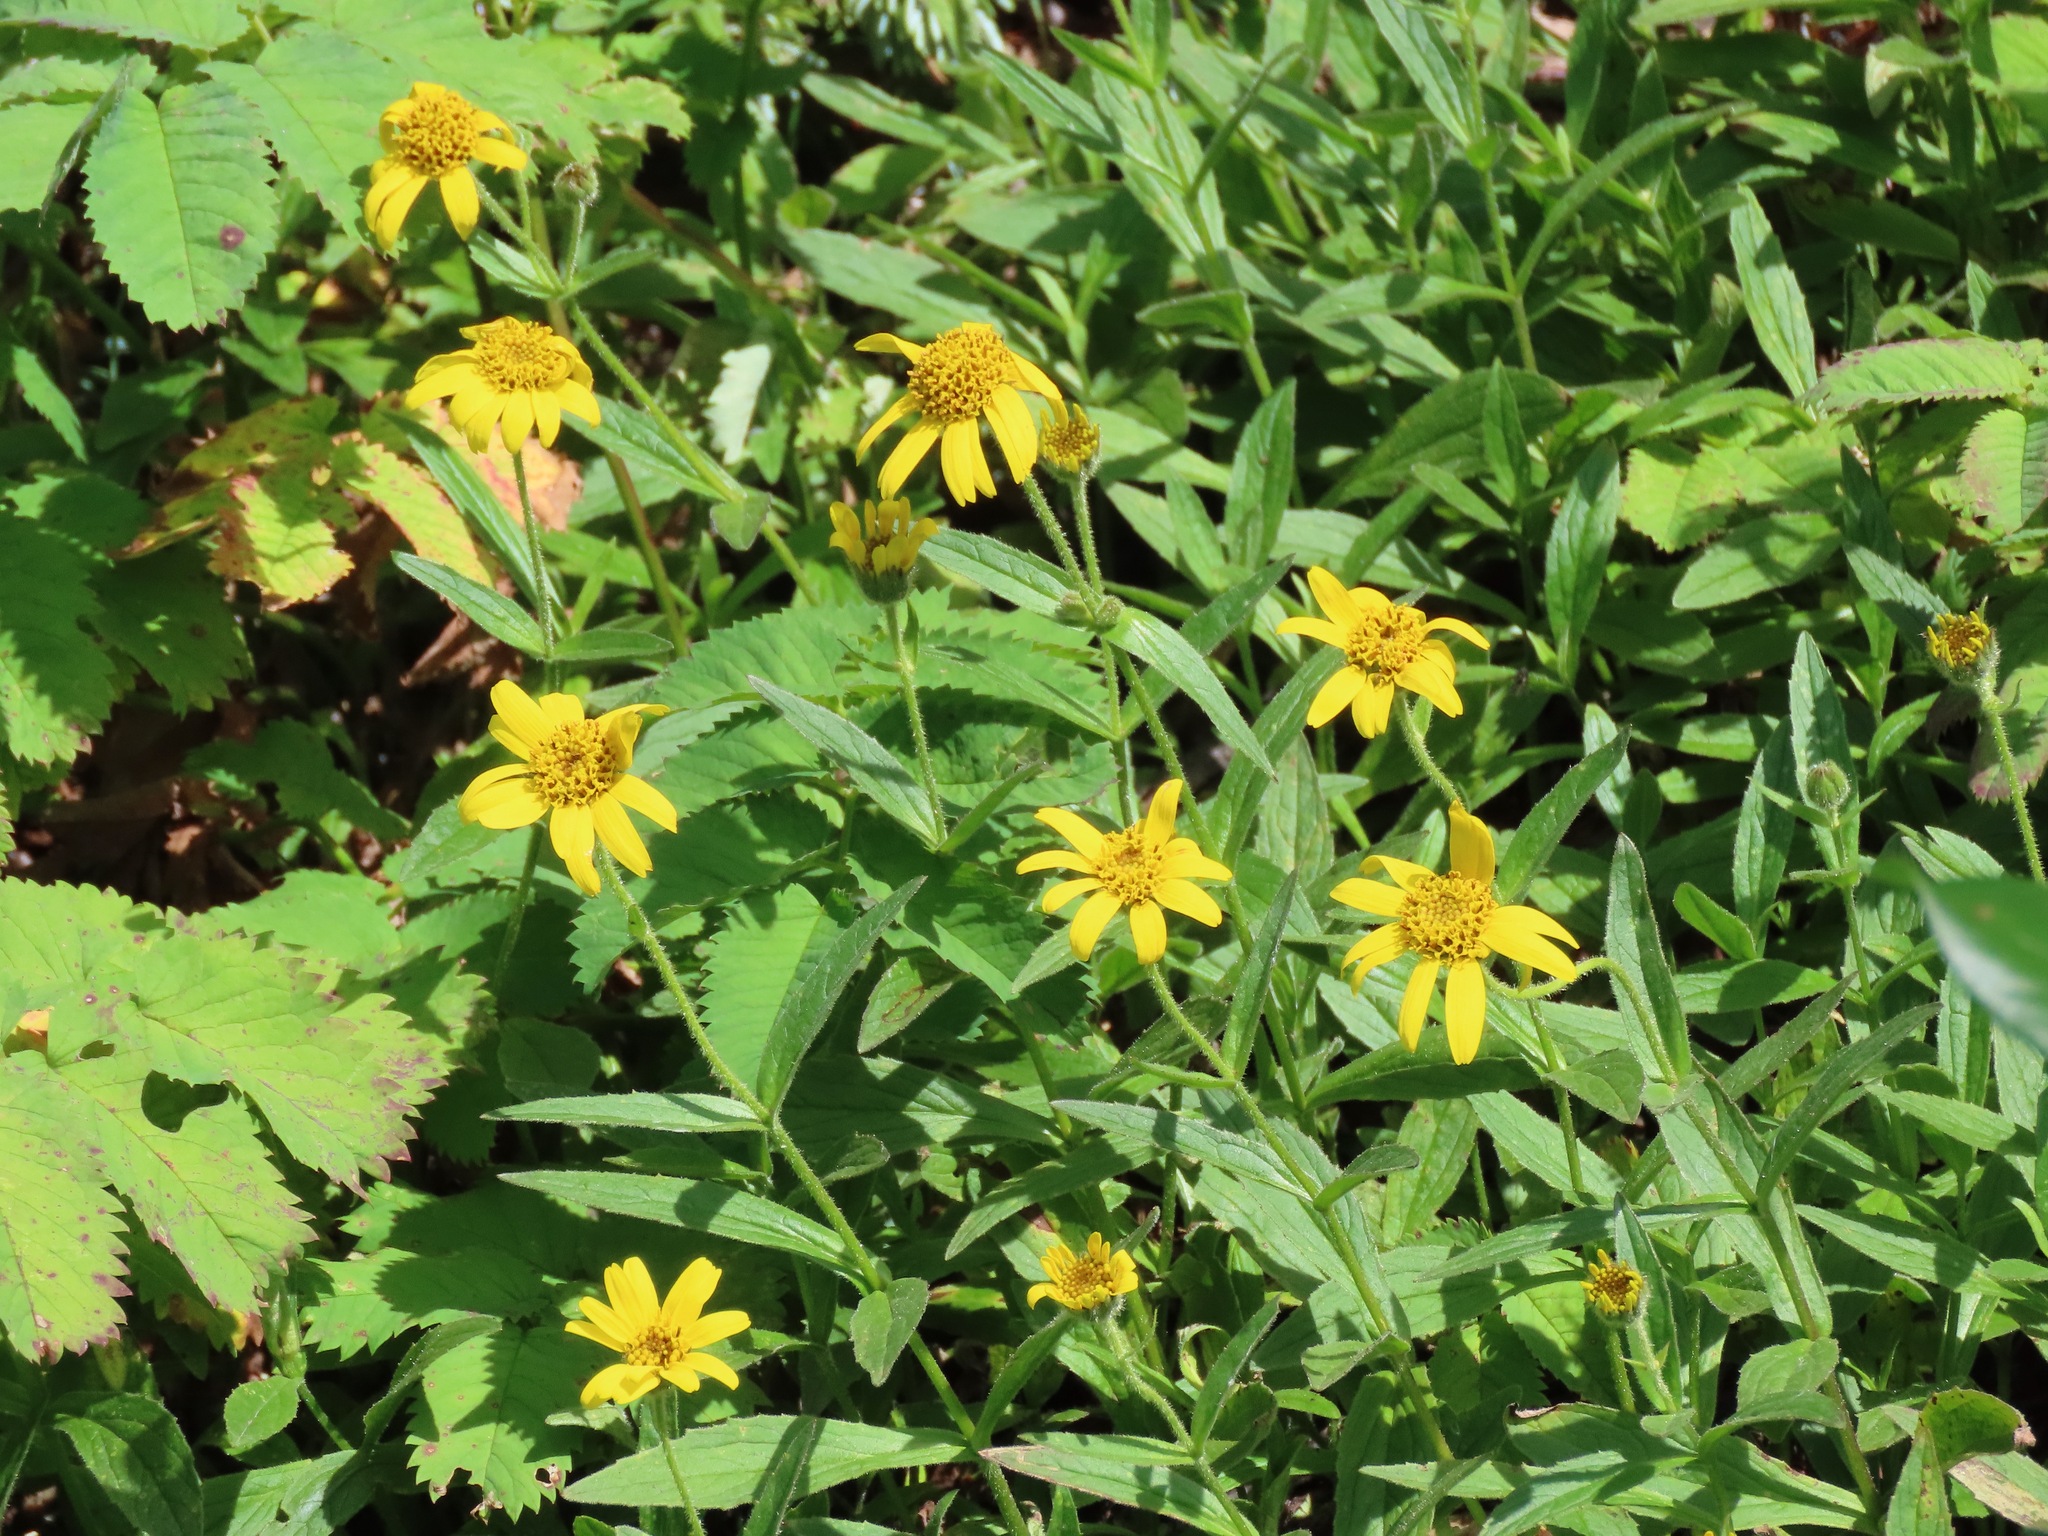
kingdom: Plantae
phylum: Tracheophyta
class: Magnoliopsida
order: Asterales
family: Asteraceae
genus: Arnica
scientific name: Arnica latifolia
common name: Arnica
